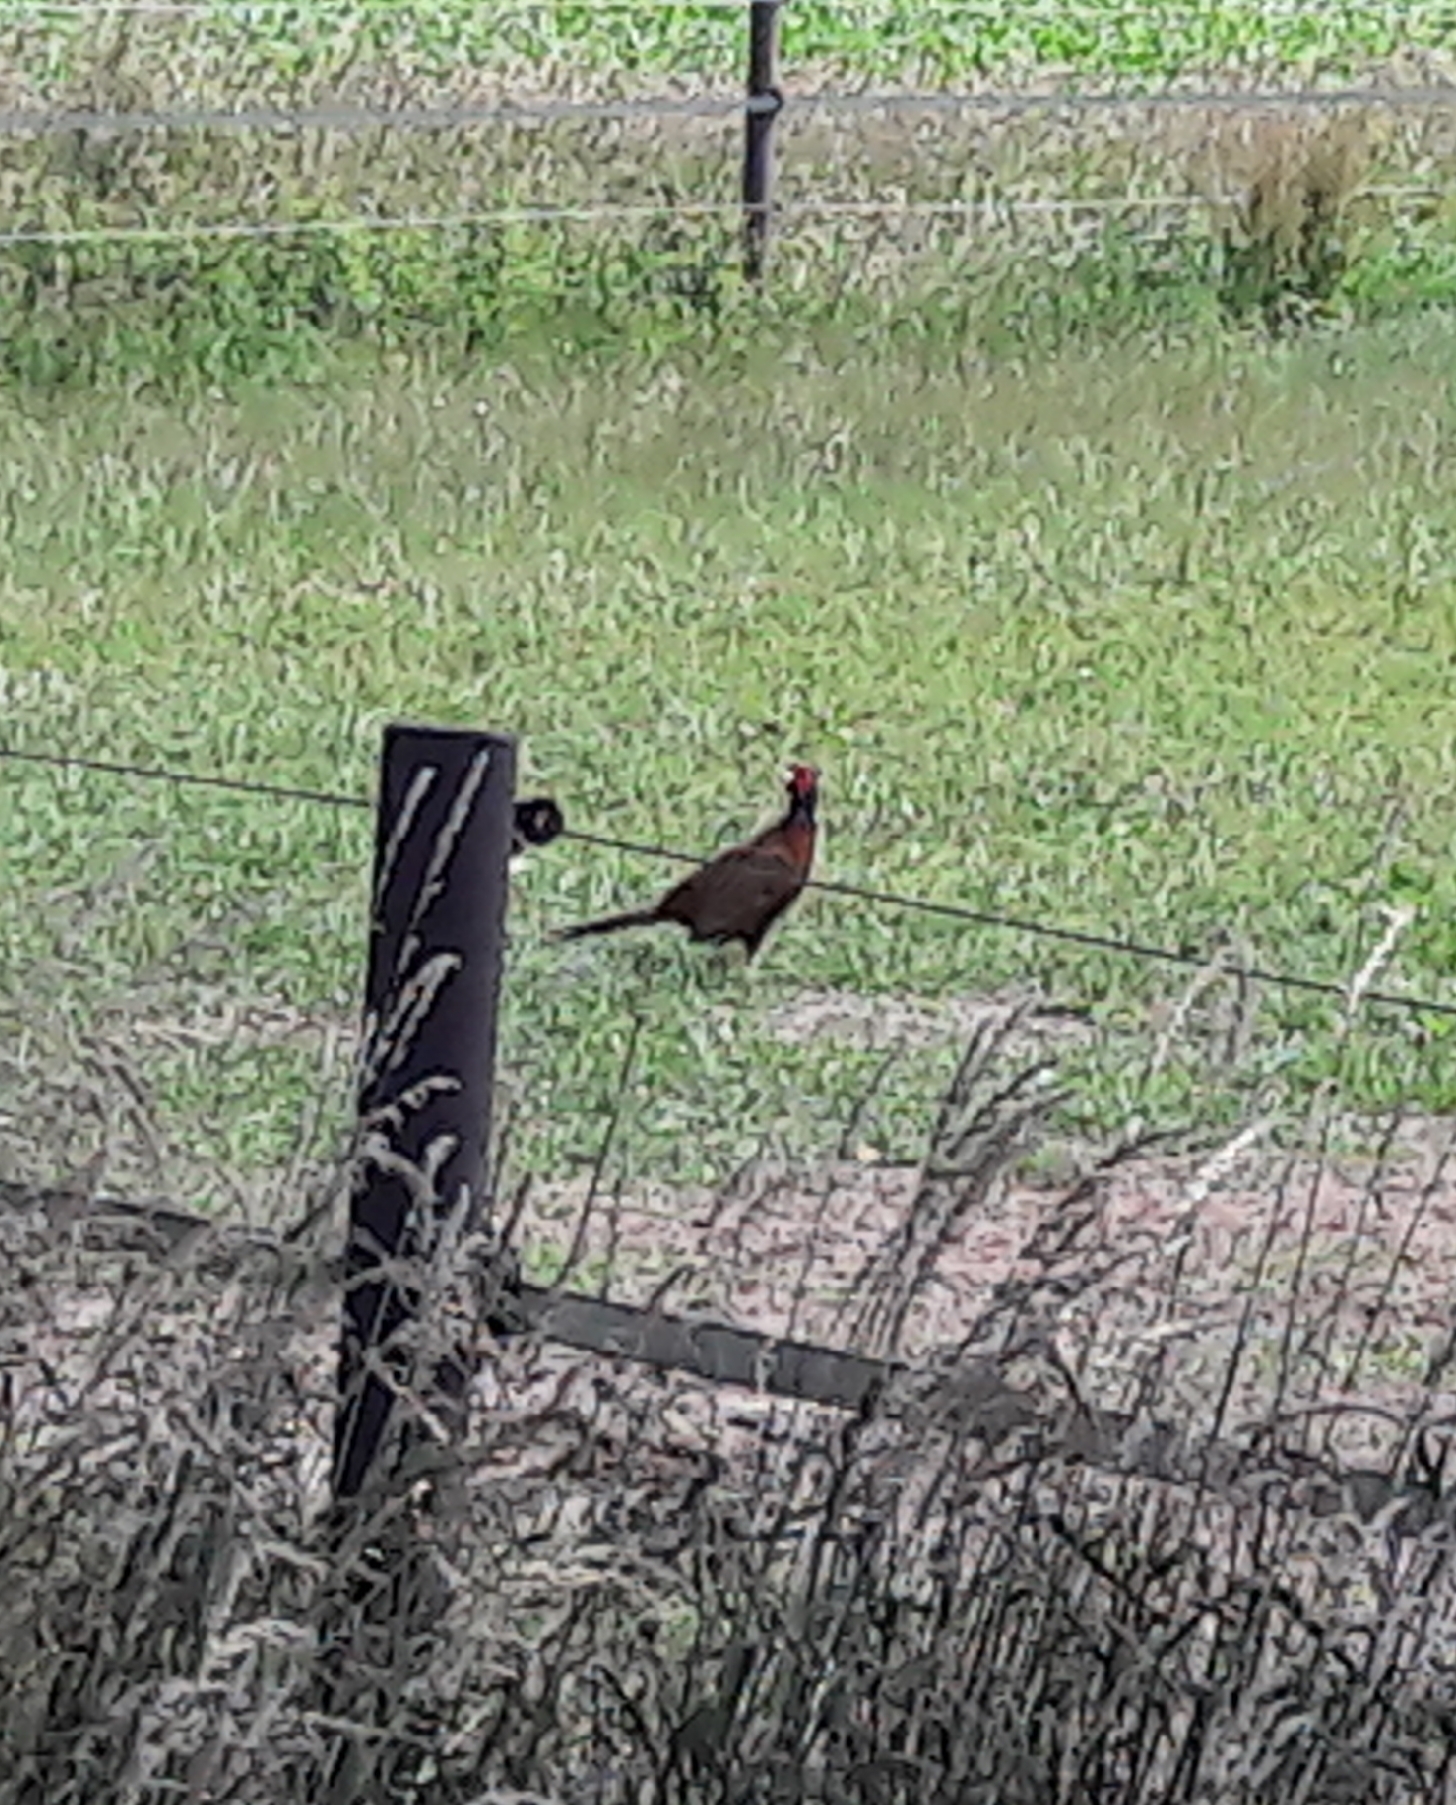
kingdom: Animalia
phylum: Chordata
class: Aves
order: Galliformes
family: Phasianidae
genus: Phasianus
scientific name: Phasianus colchicus
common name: Common pheasant
